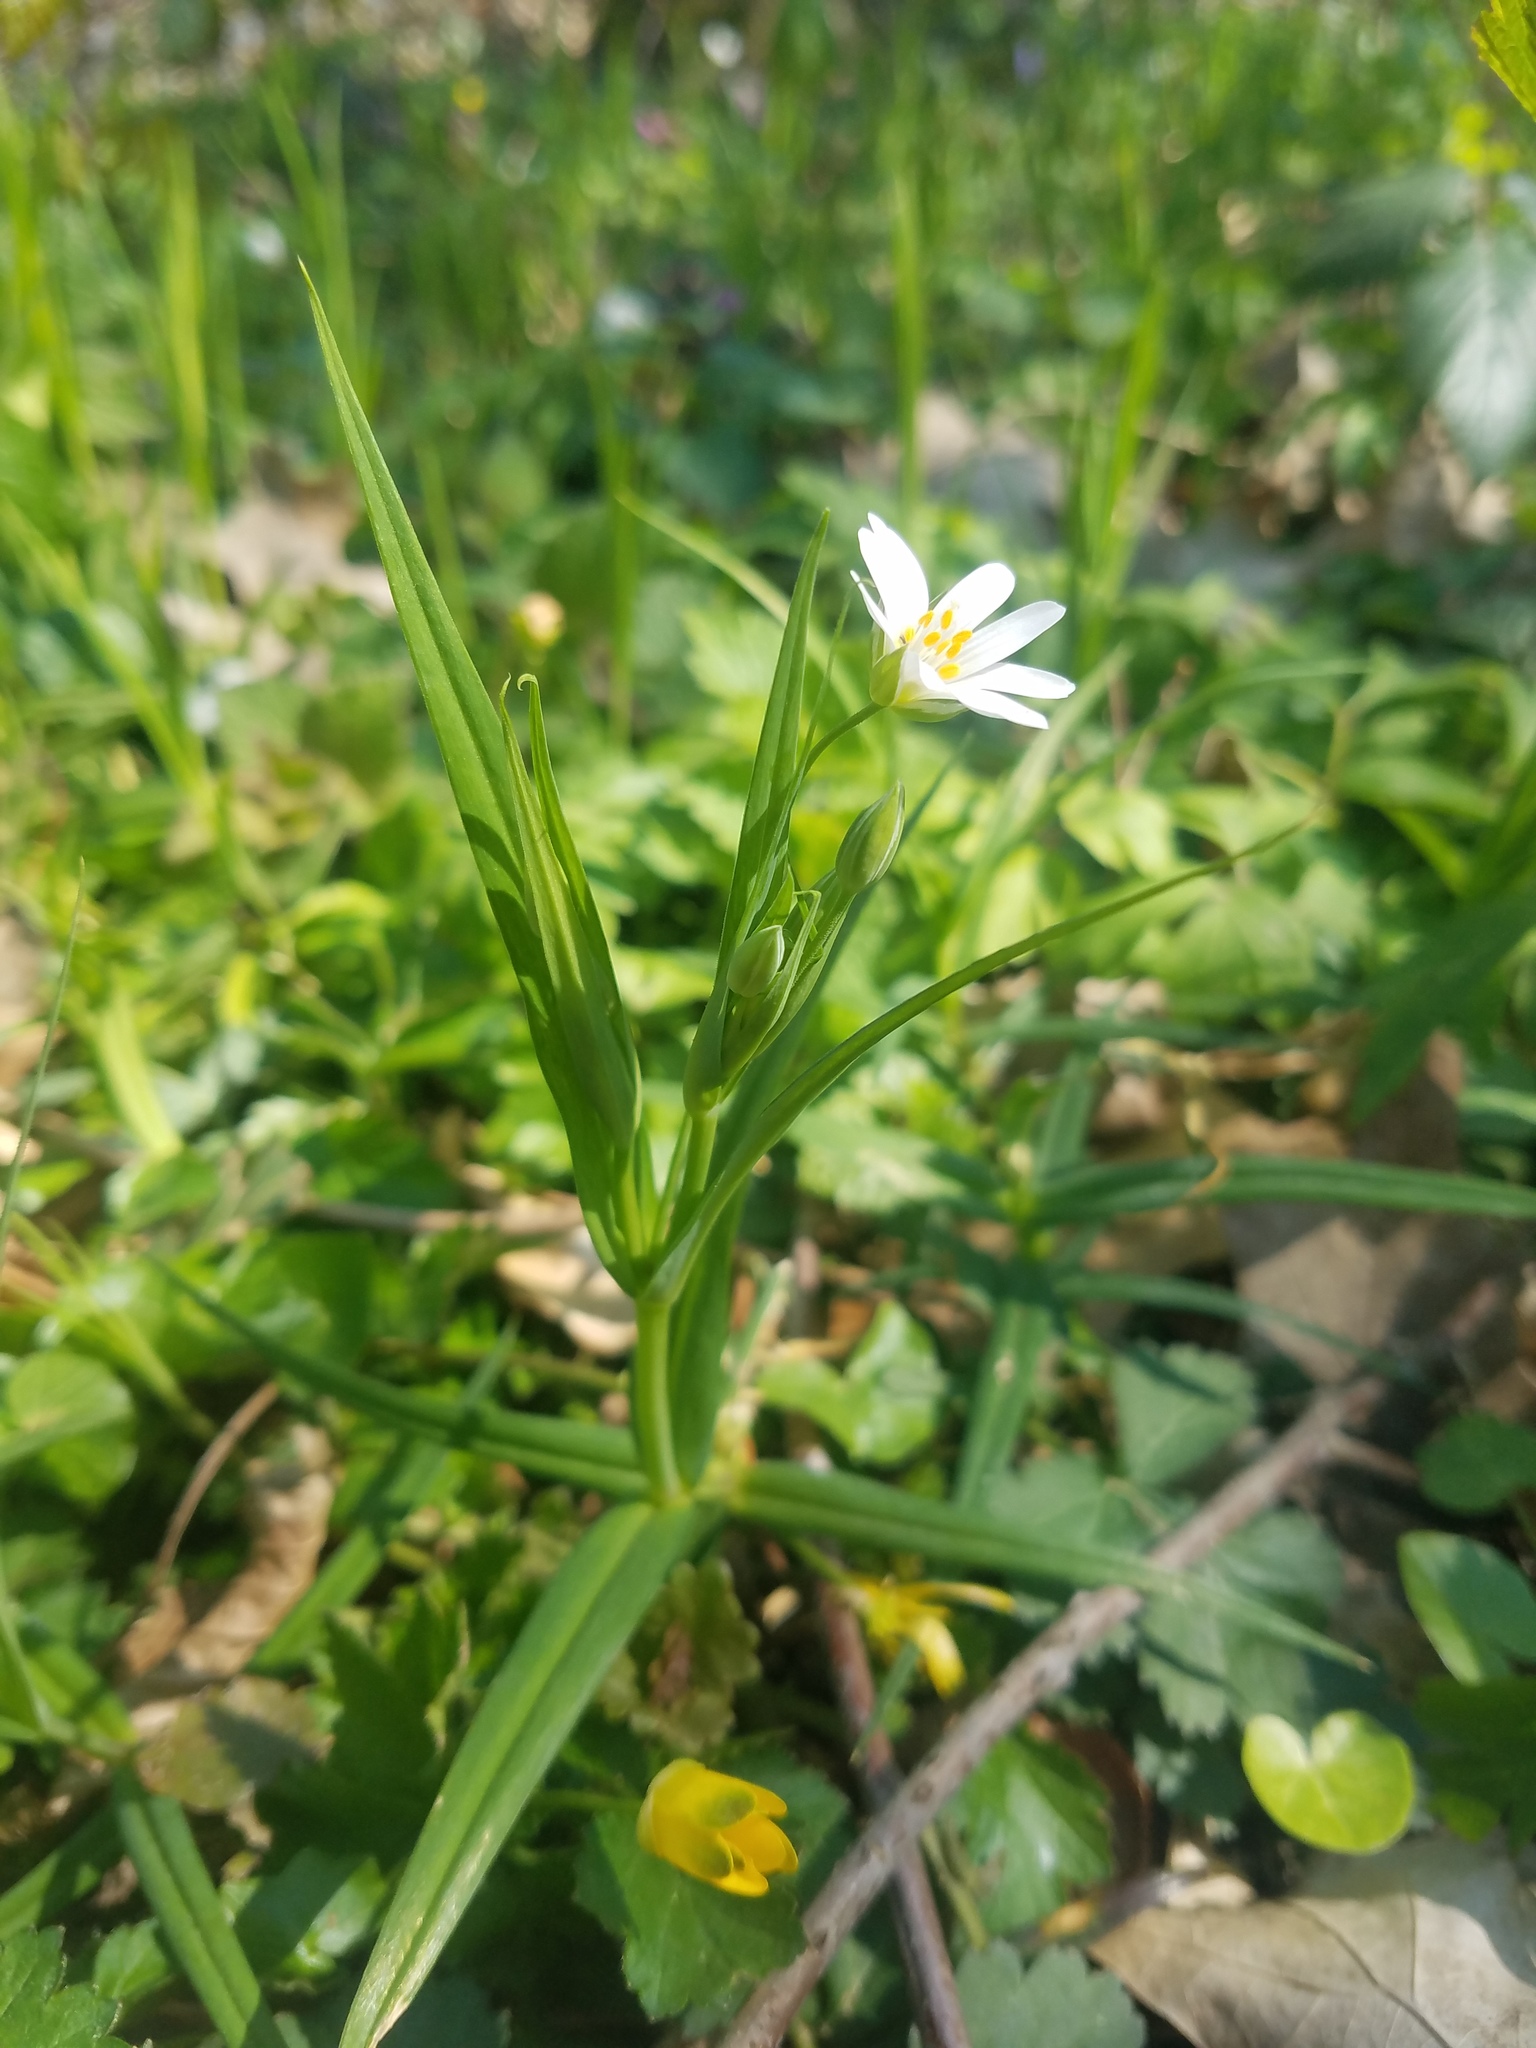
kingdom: Plantae
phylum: Tracheophyta
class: Magnoliopsida
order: Caryophyllales
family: Caryophyllaceae
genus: Rabelera
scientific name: Rabelera holostea
